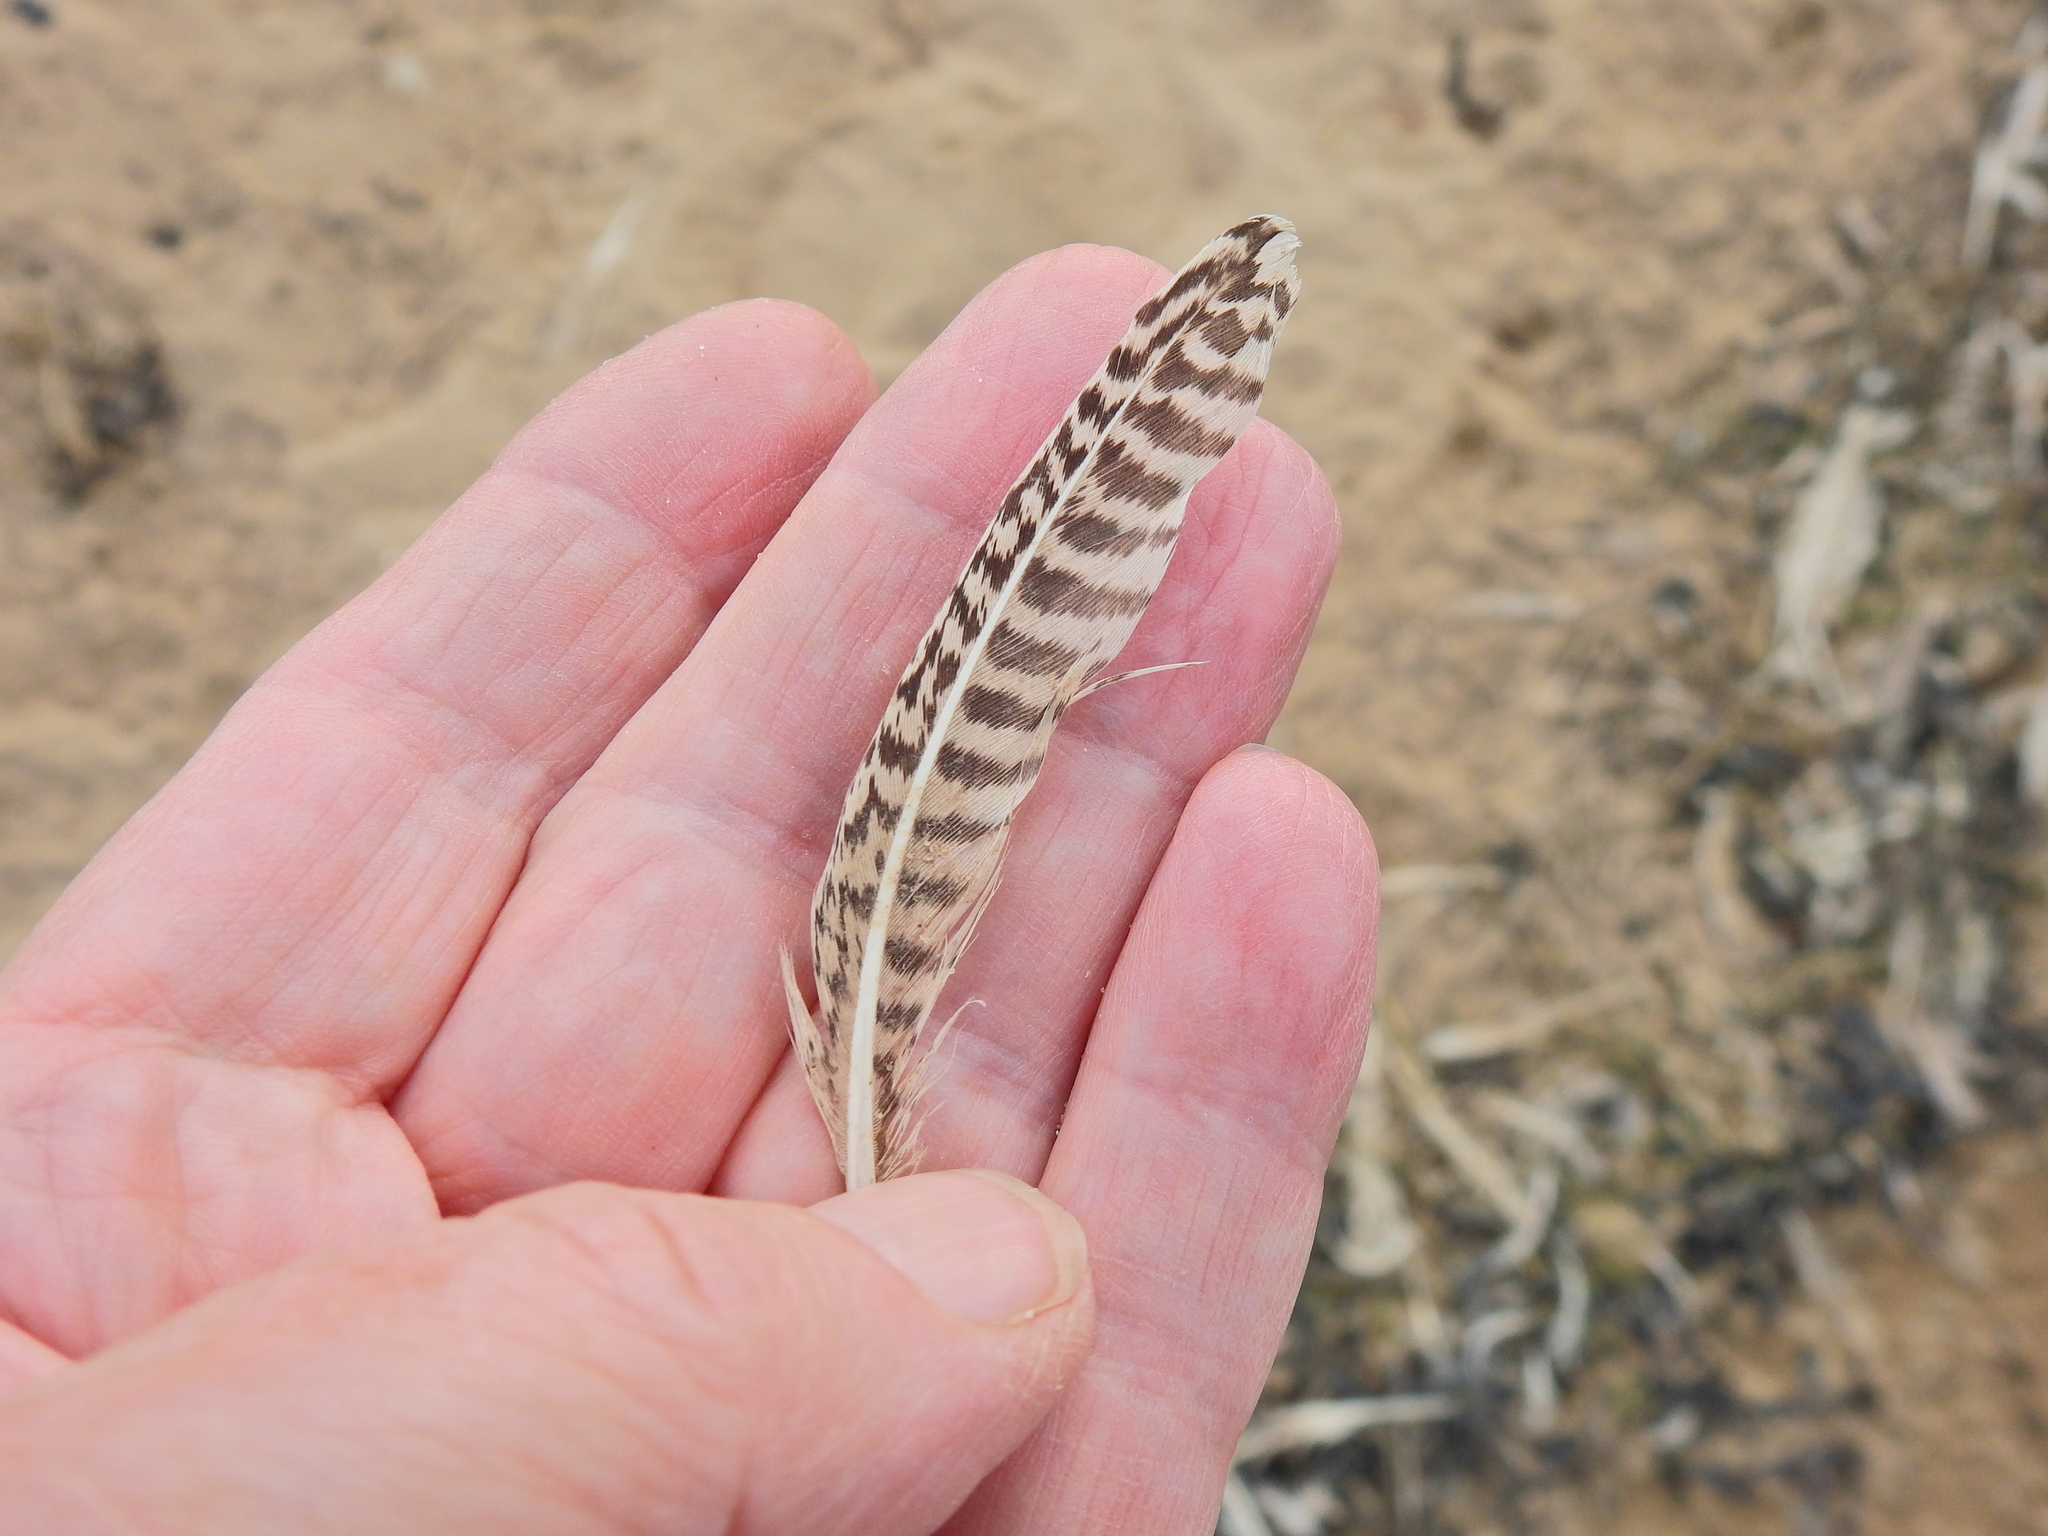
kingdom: Animalia
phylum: Chordata
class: Aves
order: Charadriiformes
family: Scolopacidae
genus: Tringa
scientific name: Tringa totanus
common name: Common redshank
